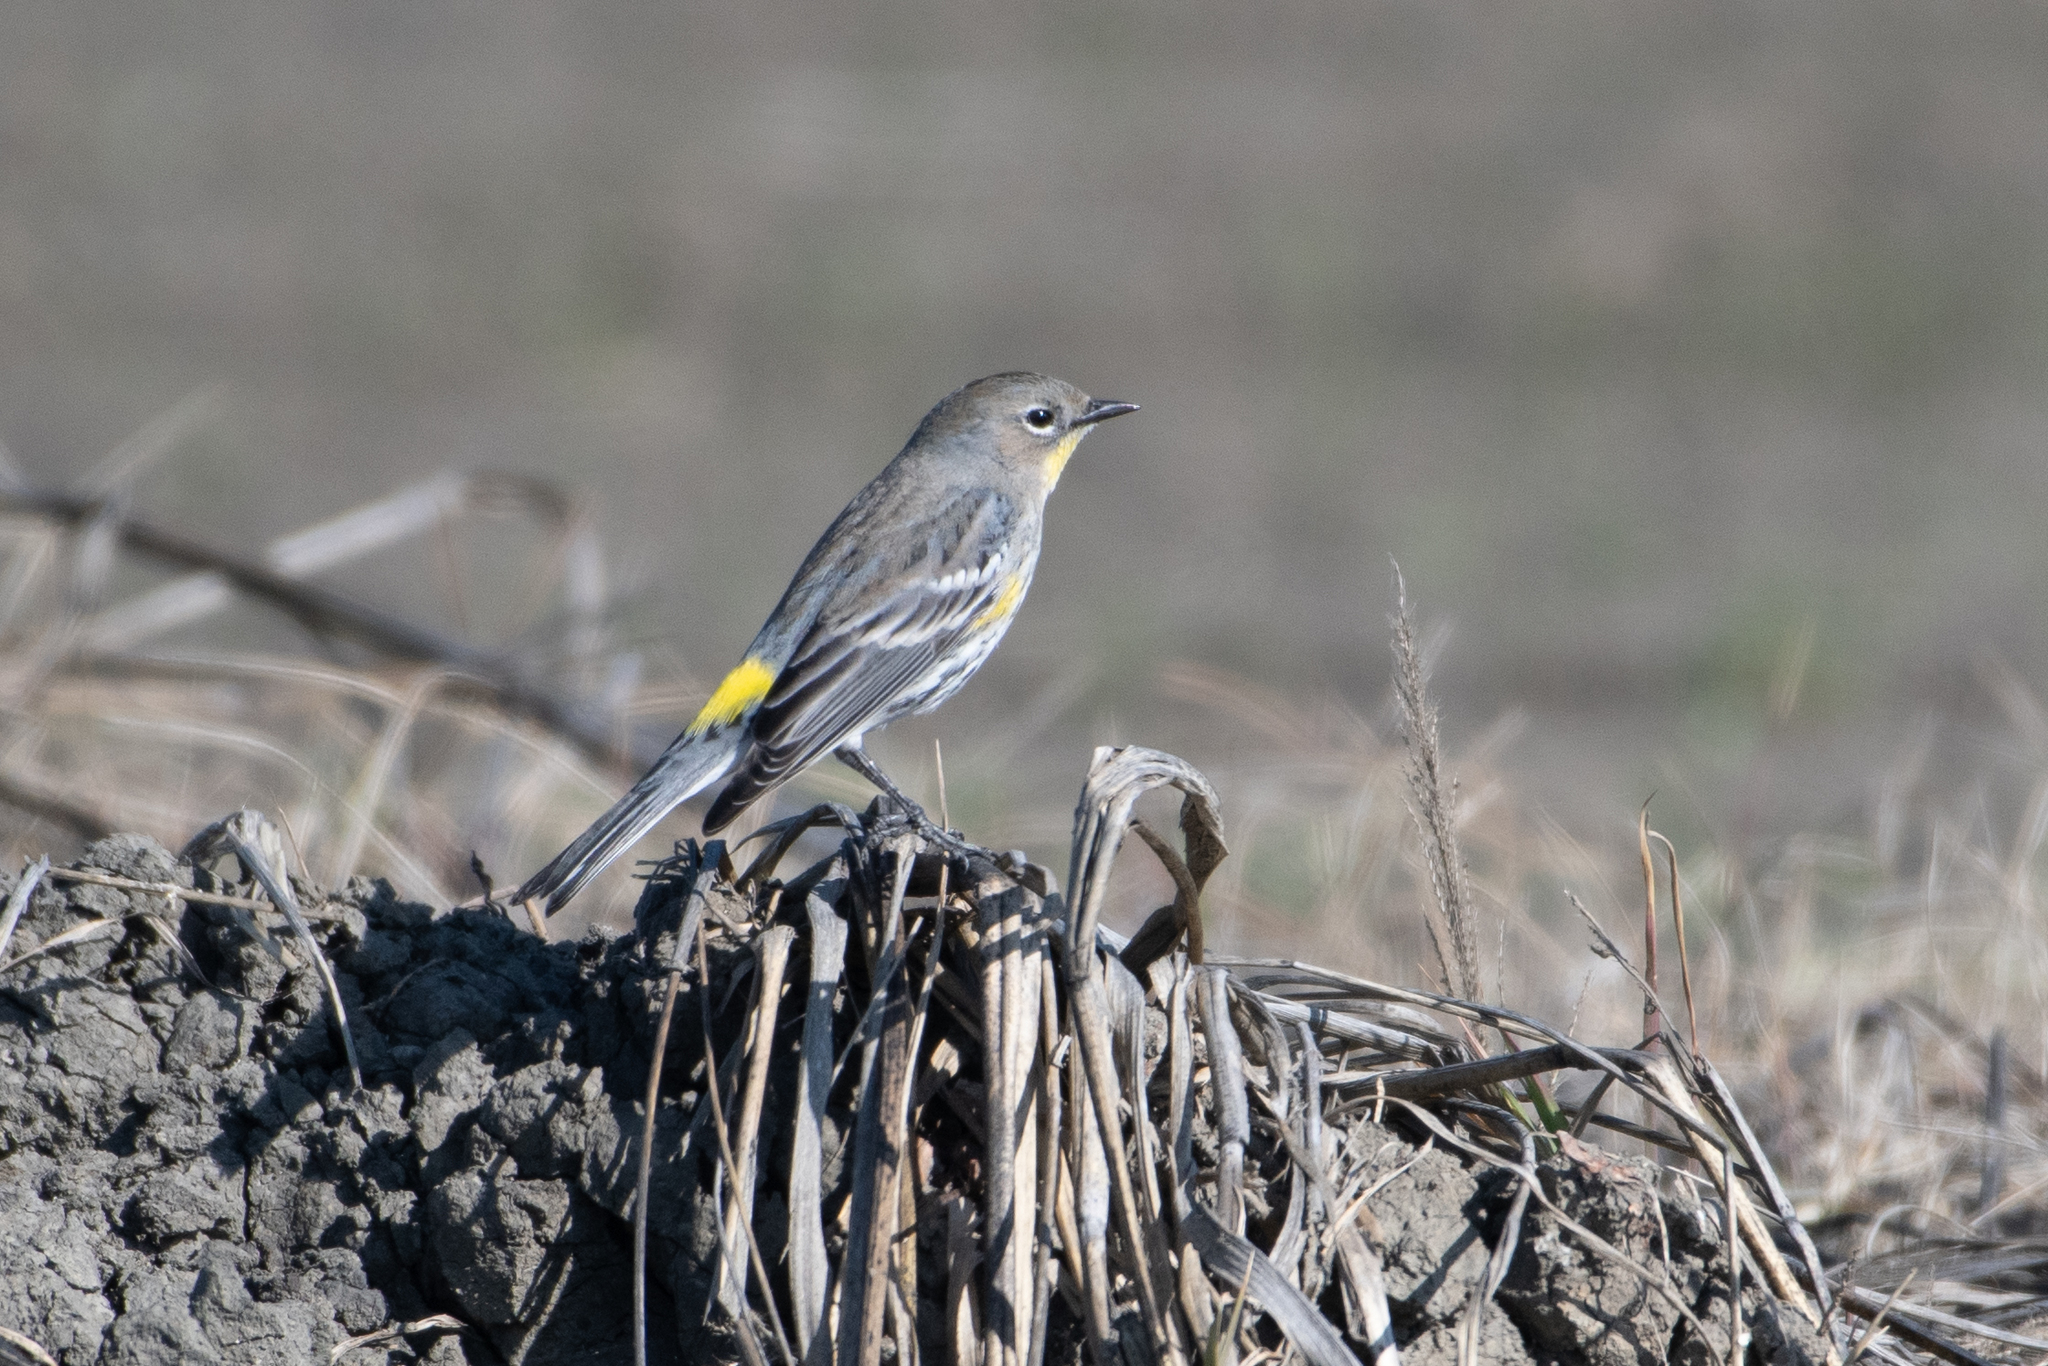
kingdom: Animalia
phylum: Chordata
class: Aves
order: Passeriformes
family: Parulidae
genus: Setophaga
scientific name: Setophaga coronata
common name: Myrtle warbler
